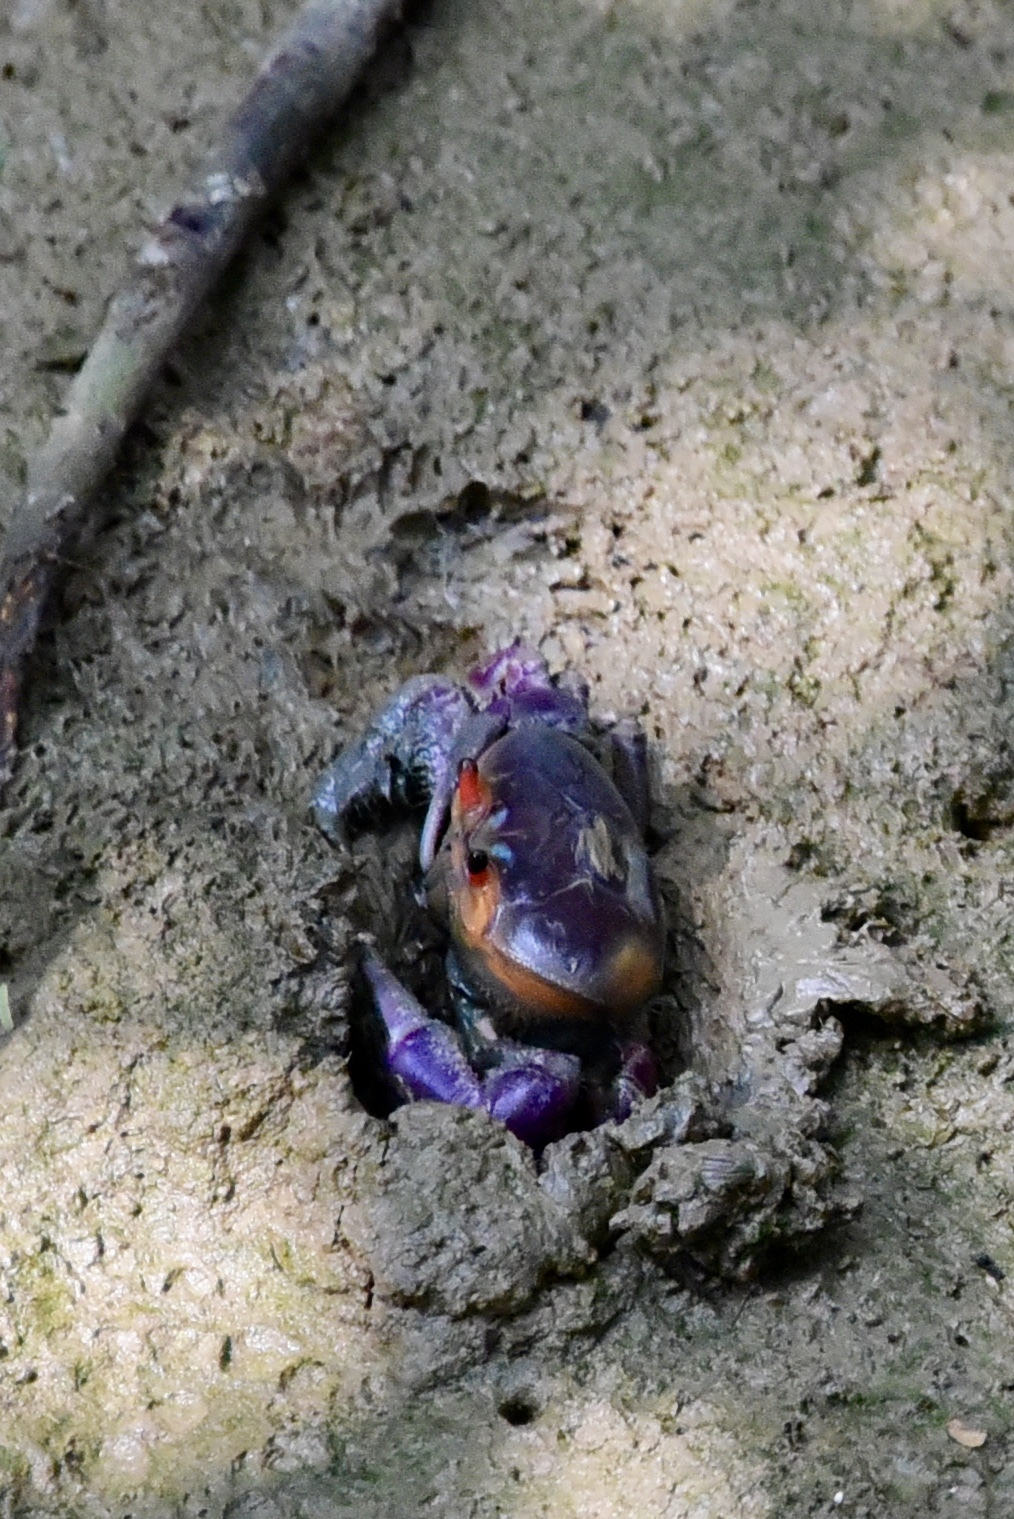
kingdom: Animalia
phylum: Arthropoda
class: Malacostraca
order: Decapoda
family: Ocypodidae
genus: Ucides
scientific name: Ucides occidentalis
